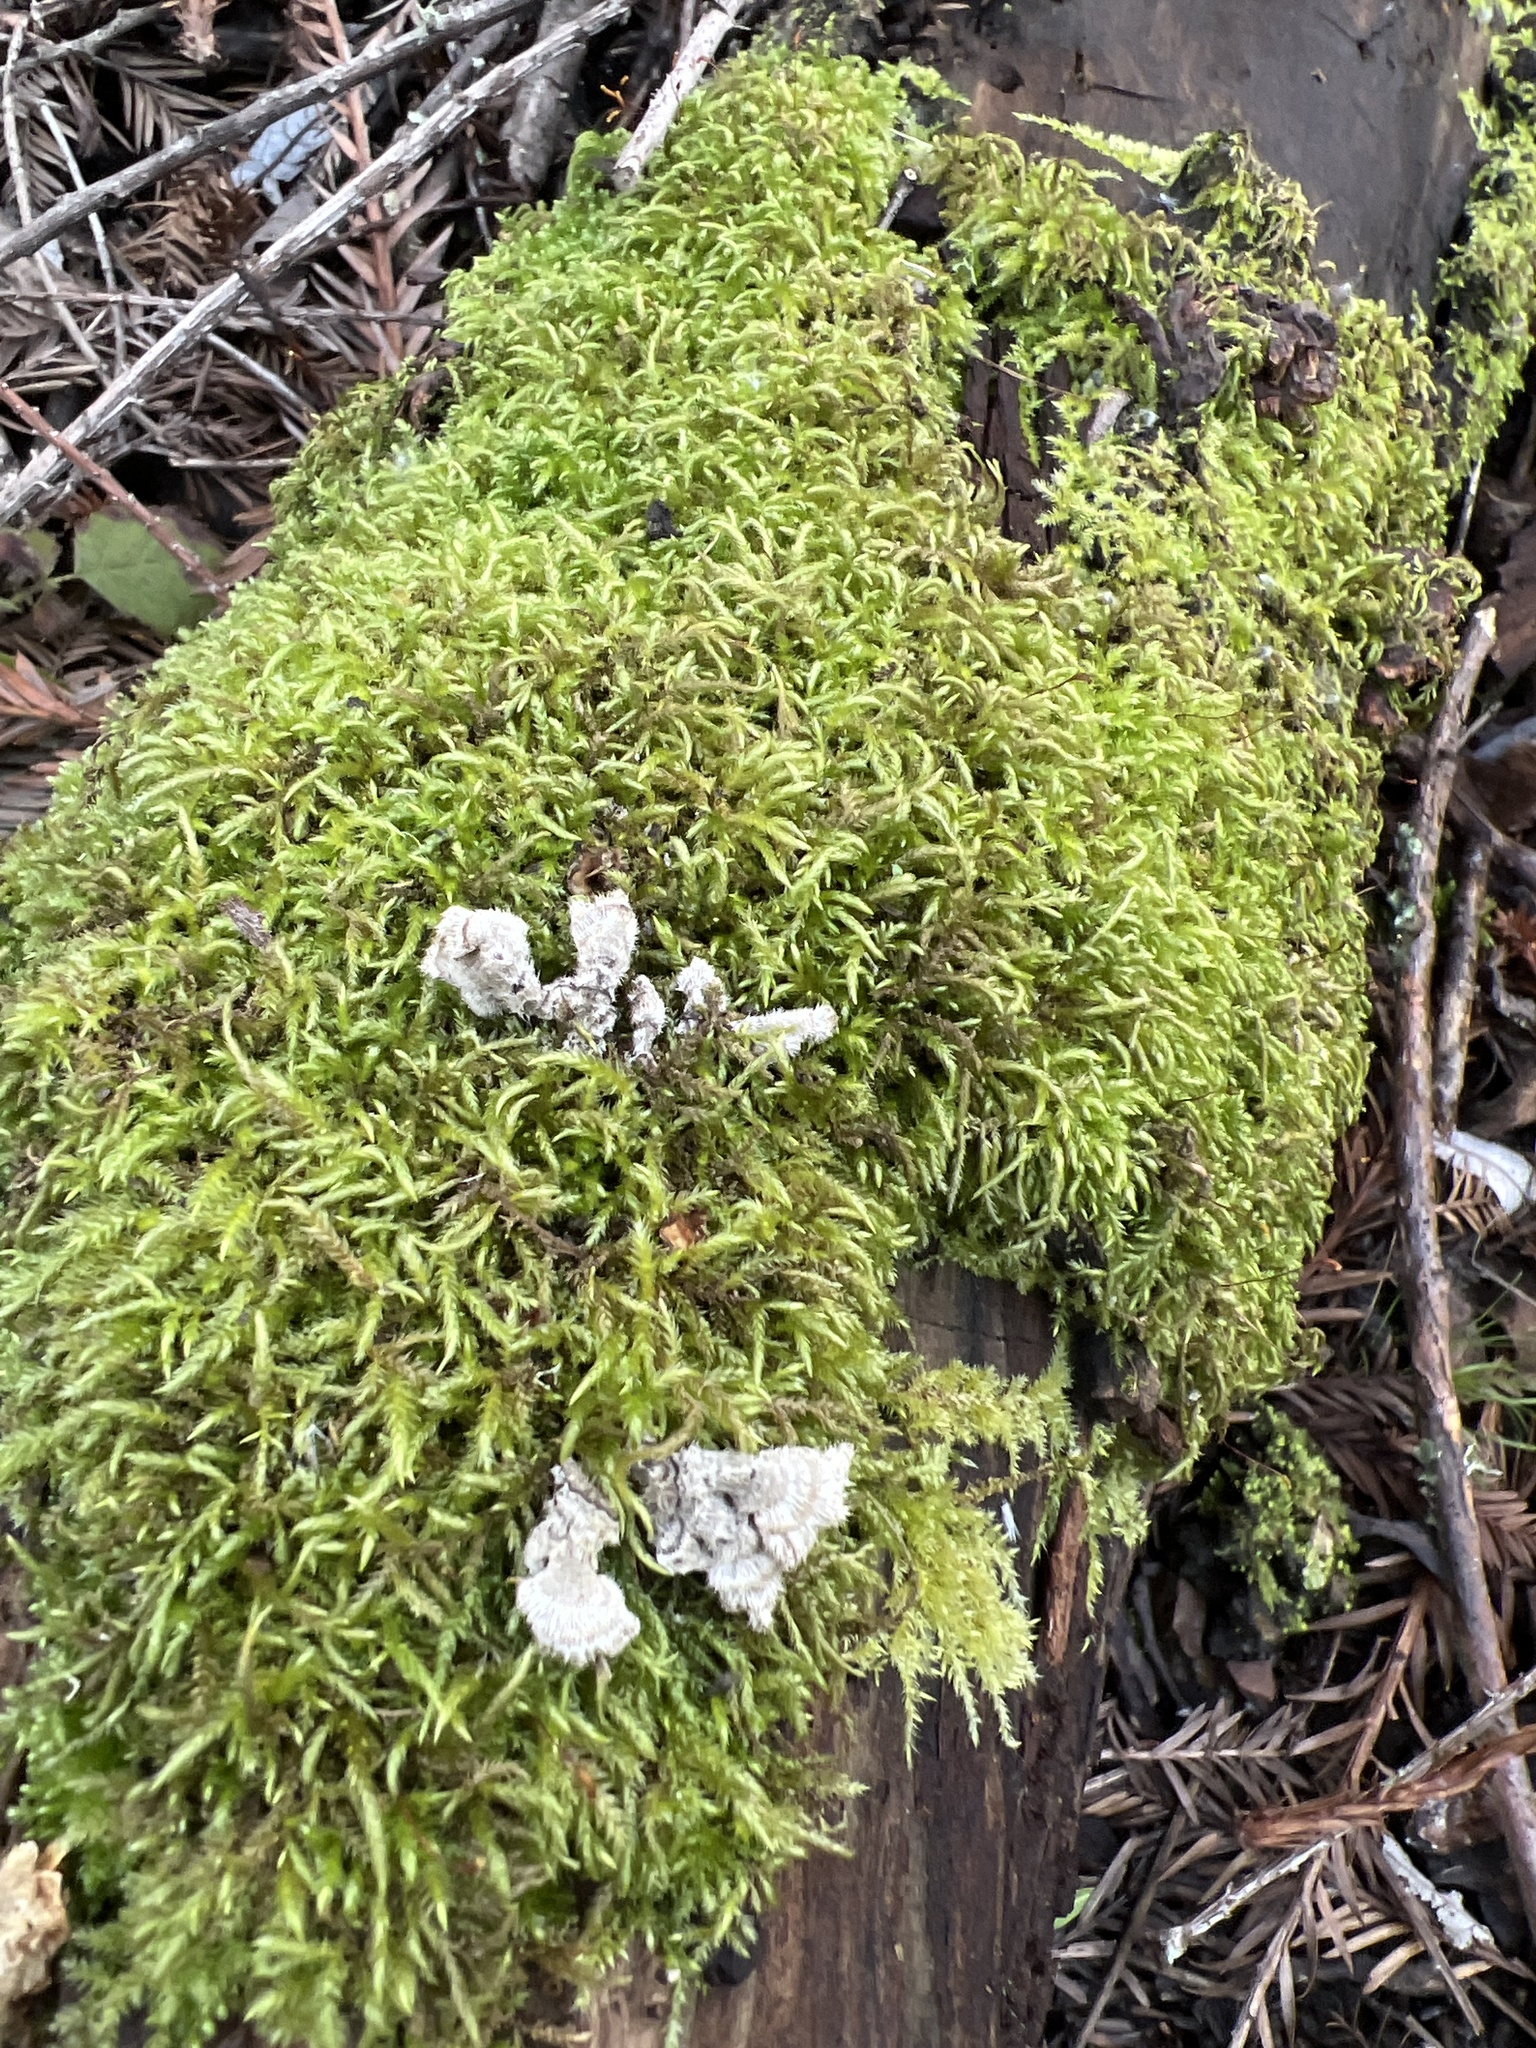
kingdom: Fungi
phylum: Basidiomycota
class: Agaricomycetes
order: Russulales
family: Stereaceae
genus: Stereum
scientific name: Stereum hirsutum
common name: Hairy curtain crust
